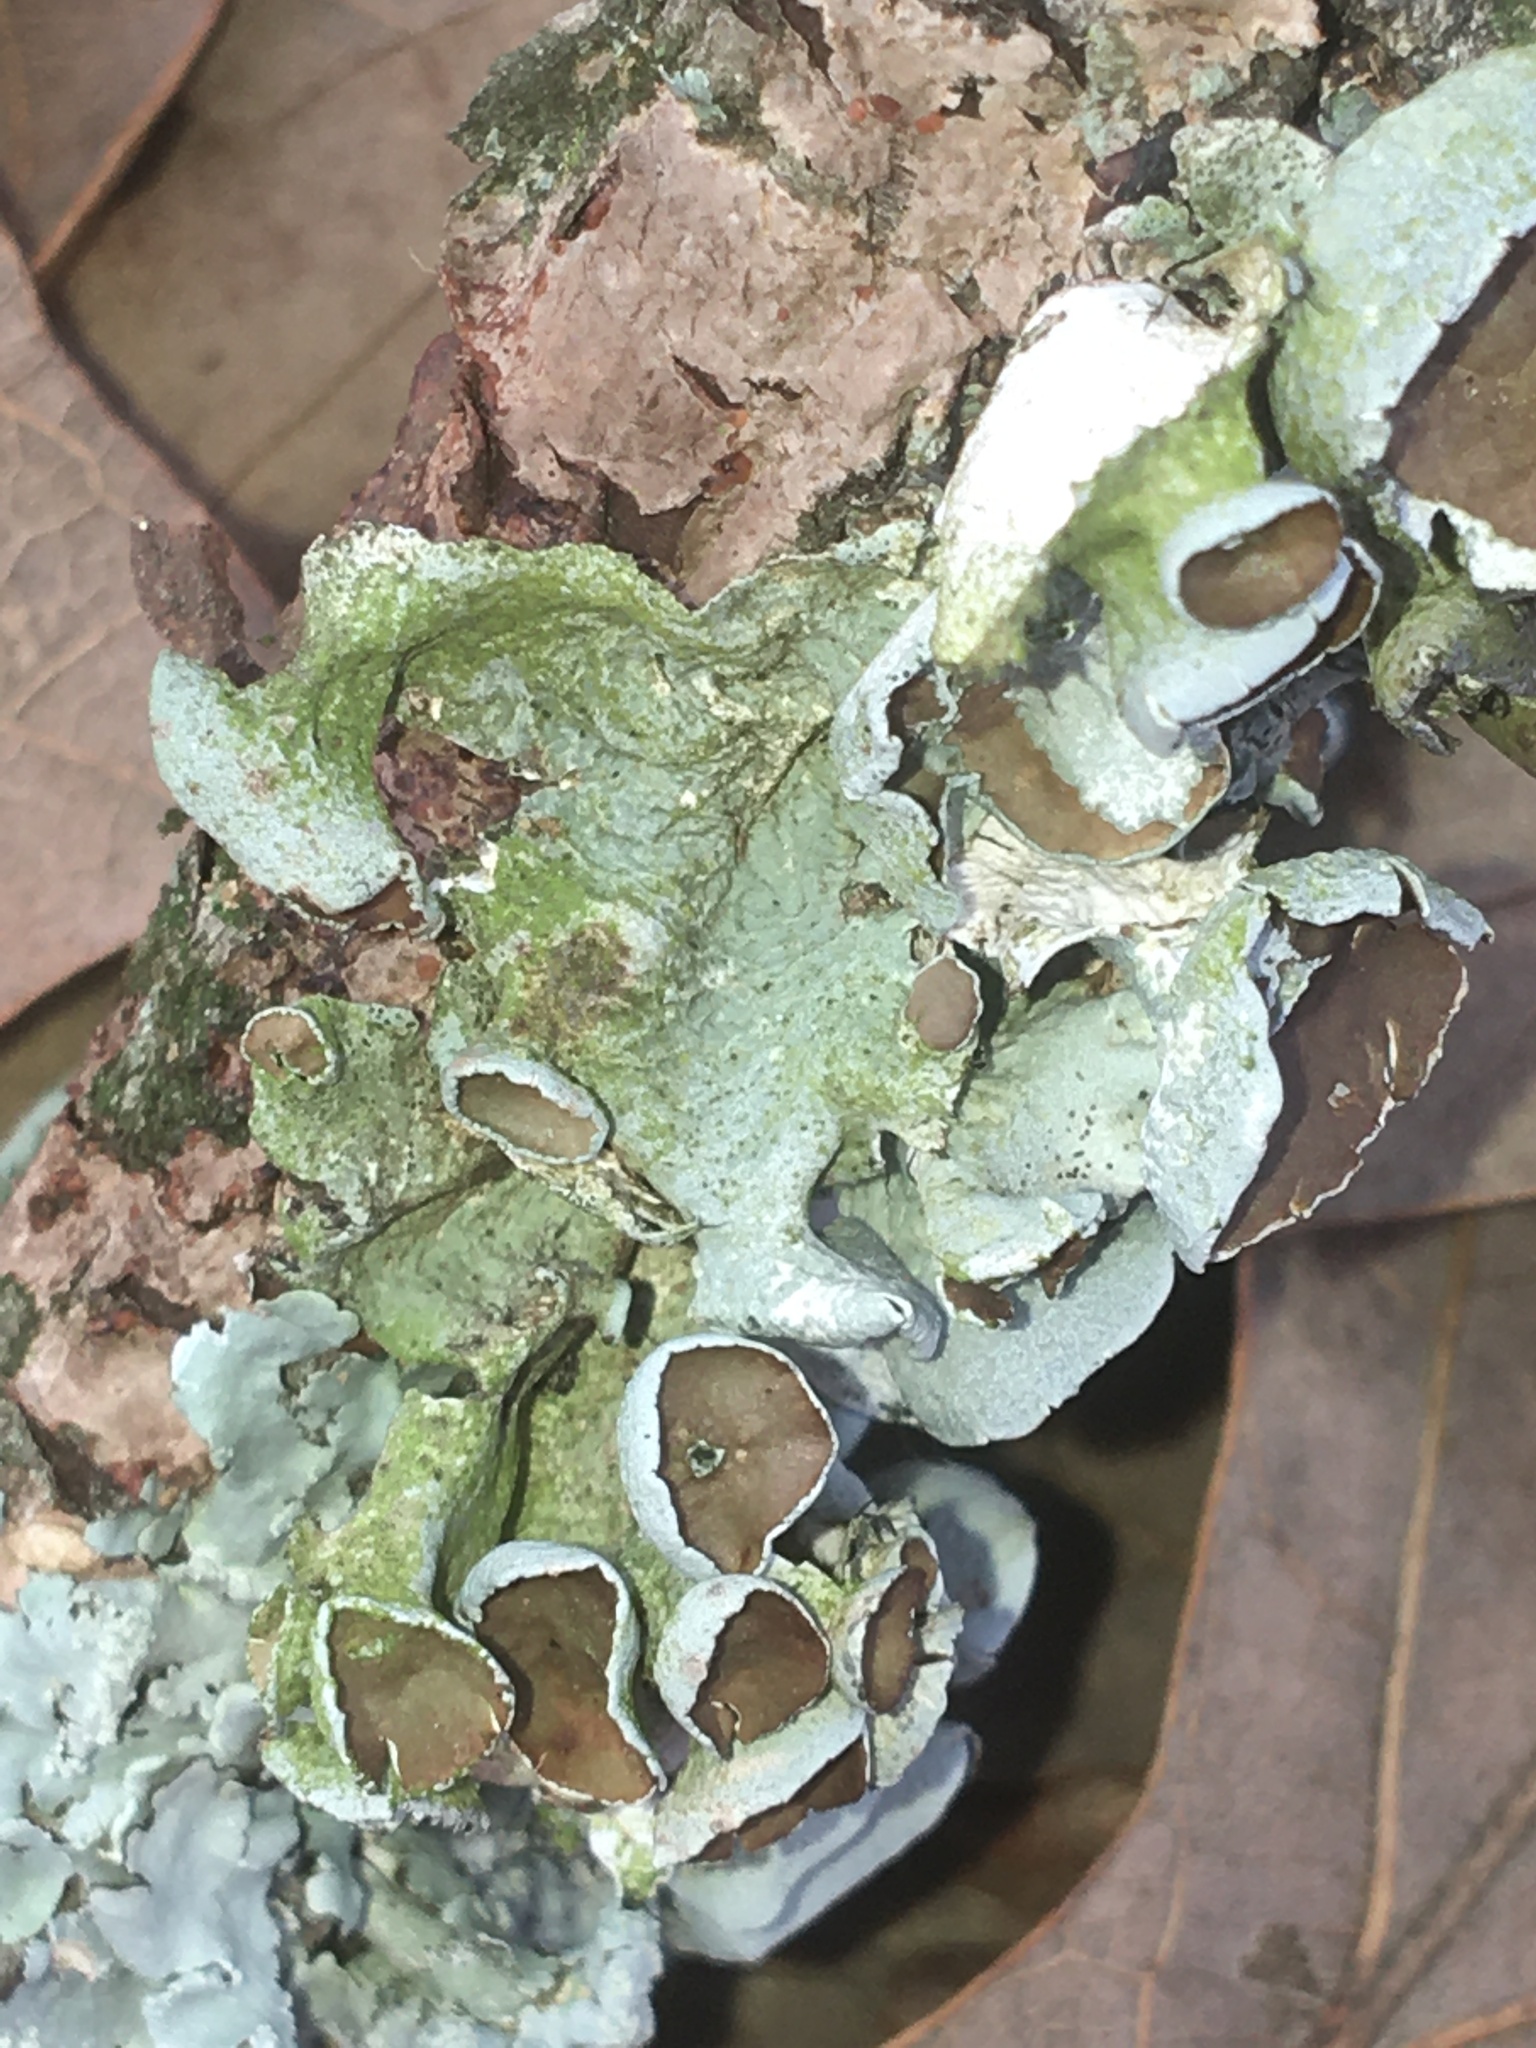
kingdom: Fungi
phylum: Ascomycota
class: Lecanoromycetes
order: Lecanorales
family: Parmeliaceae
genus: Parmotrema
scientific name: Parmotrema perforatum
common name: Perforated ruffle lichen
